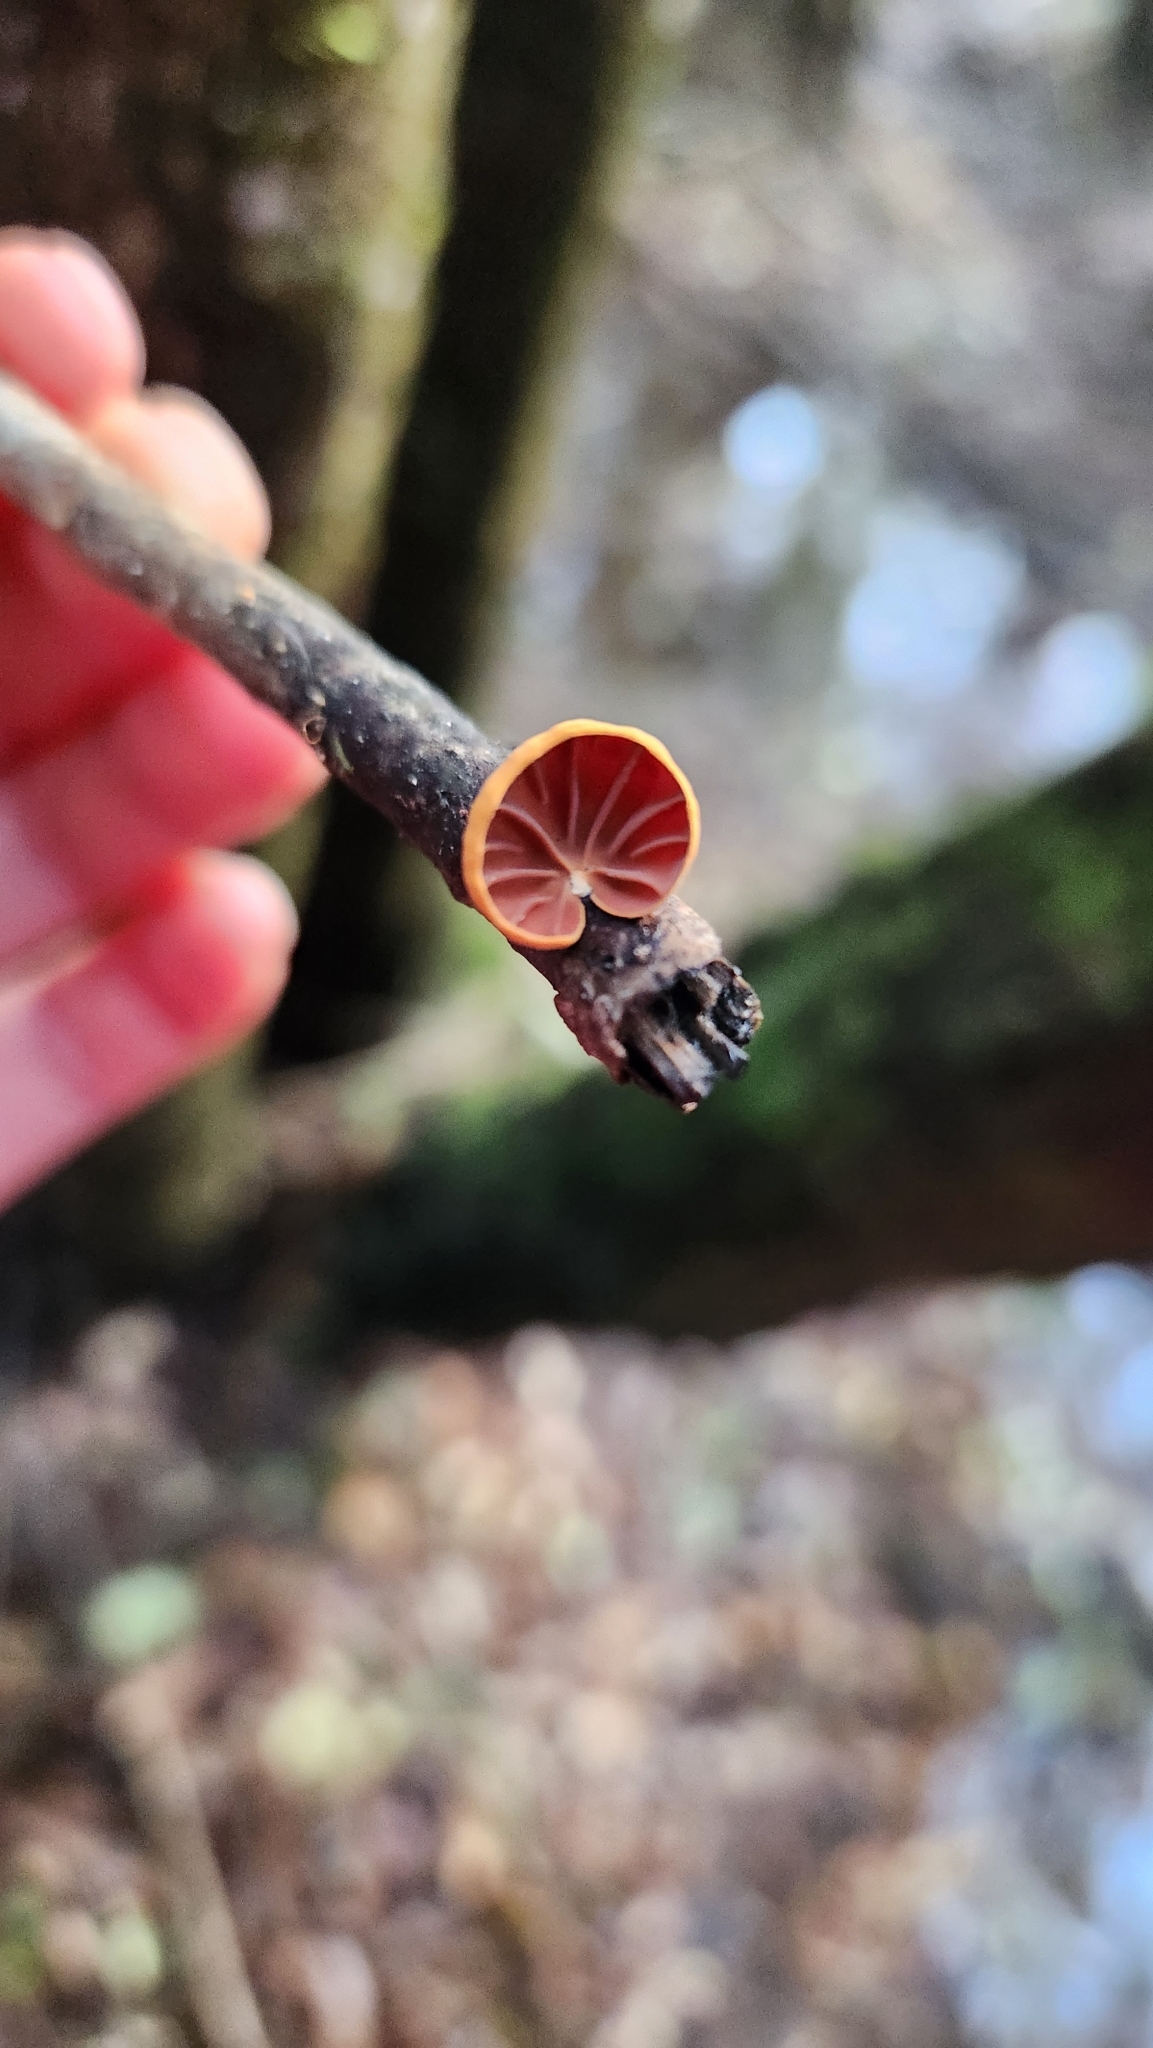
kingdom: Fungi
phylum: Basidiomycota
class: Agaricomycetes
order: Agaricales
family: Omphalotaceae
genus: Anthracophyllum
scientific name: Anthracophyllum discolor
